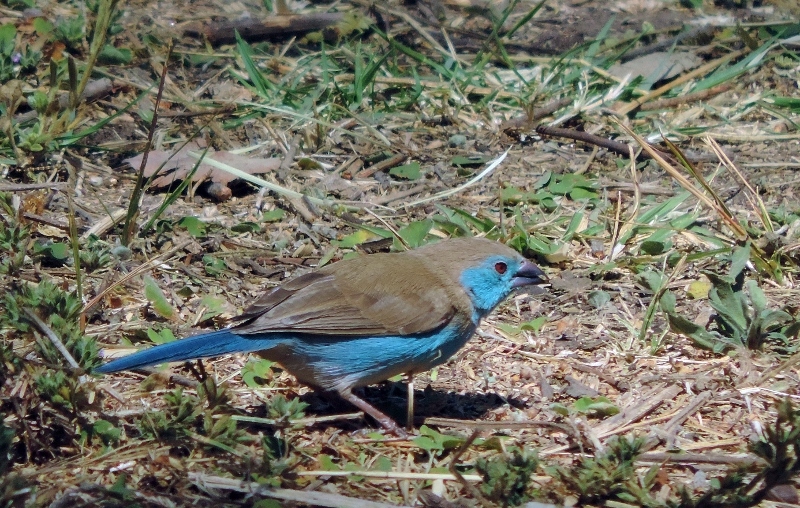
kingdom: Animalia
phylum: Chordata
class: Aves
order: Passeriformes
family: Estrildidae
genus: Uraeginthus
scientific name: Uraeginthus angolensis
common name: Blue waxbill
